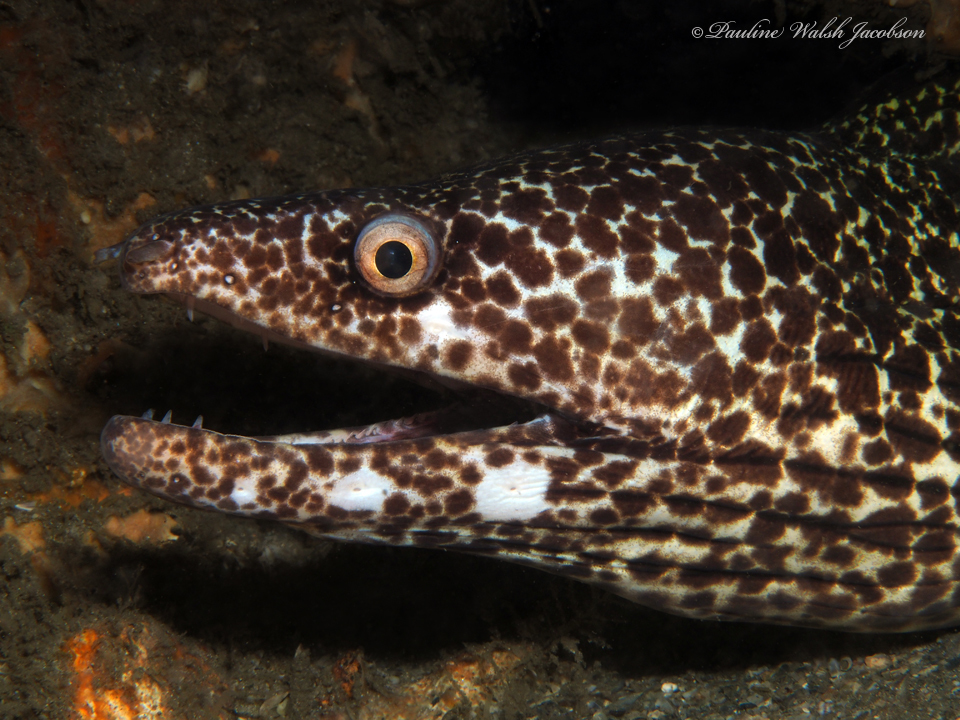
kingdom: Animalia
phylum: Chordata
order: Anguilliformes
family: Muraenidae
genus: Gymnothorax
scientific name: Gymnothorax moringa
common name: Spotted moray
